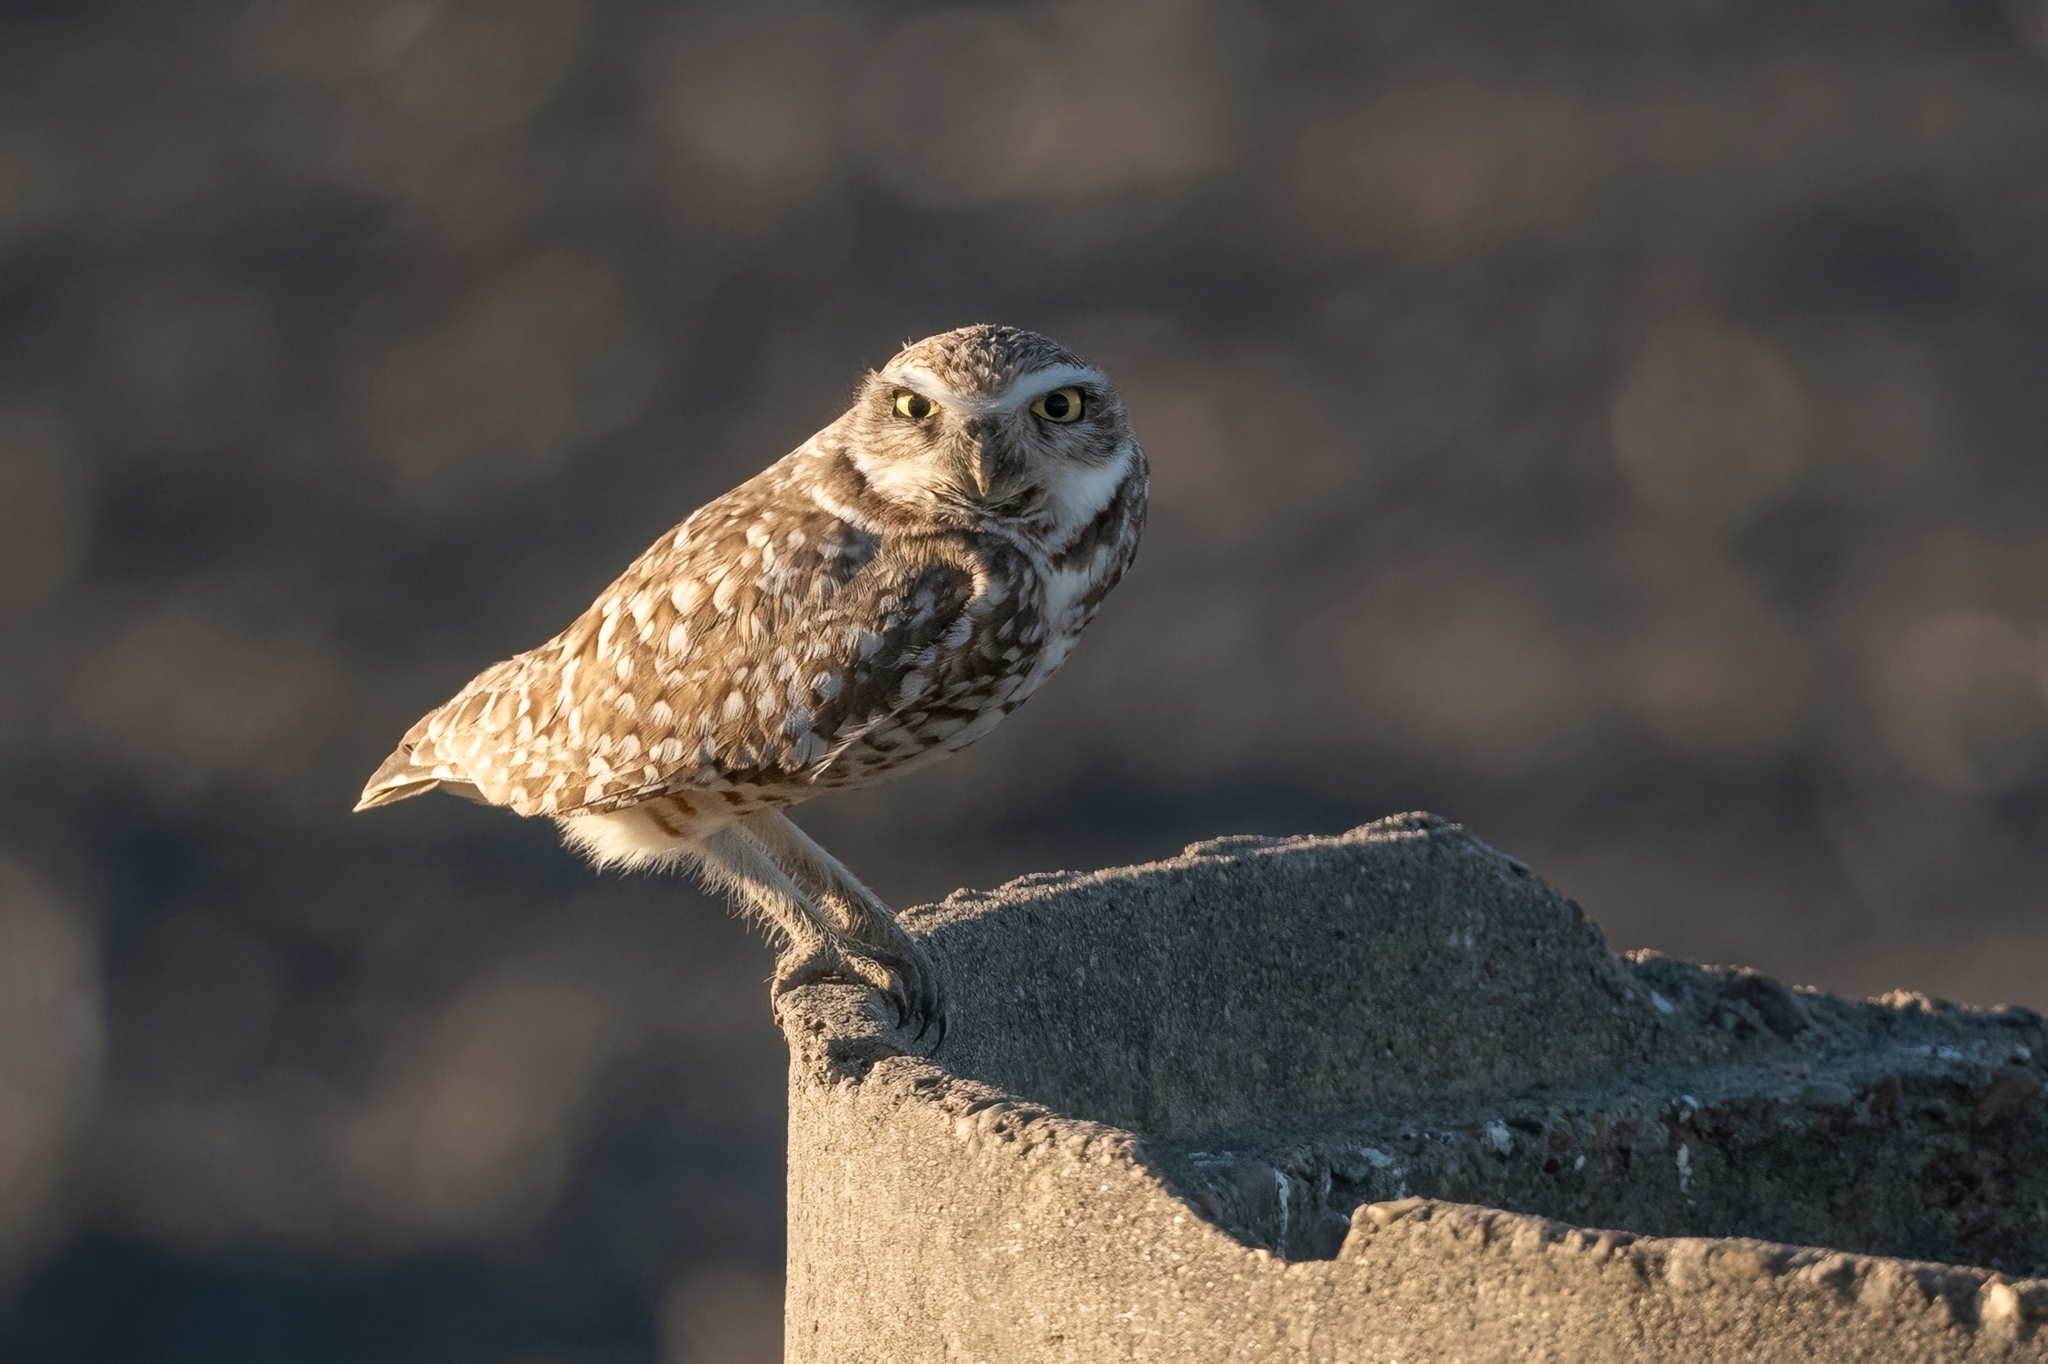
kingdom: Animalia
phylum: Chordata
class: Aves
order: Strigiformes
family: Strigidae
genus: Athene
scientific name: Athene cunicularia
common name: Burrowing owl
